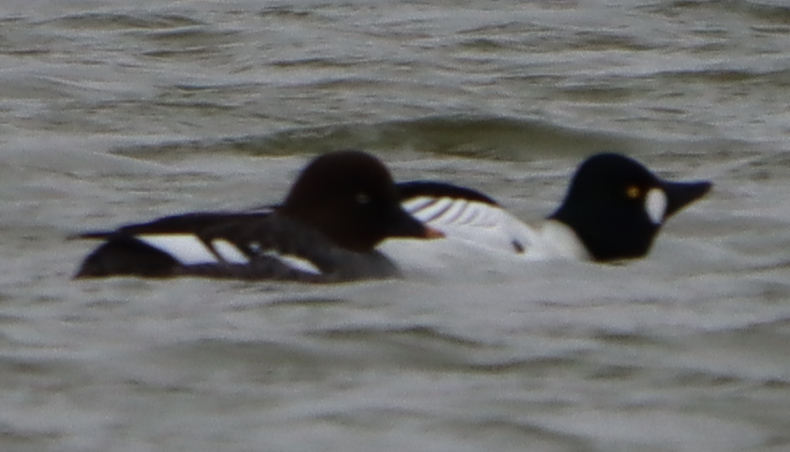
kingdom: Animalia
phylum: Chordata
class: Aves
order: Anseriformes
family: Anatidae
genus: Bucephala
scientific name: Bucephala clangula
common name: Common goldeneye
